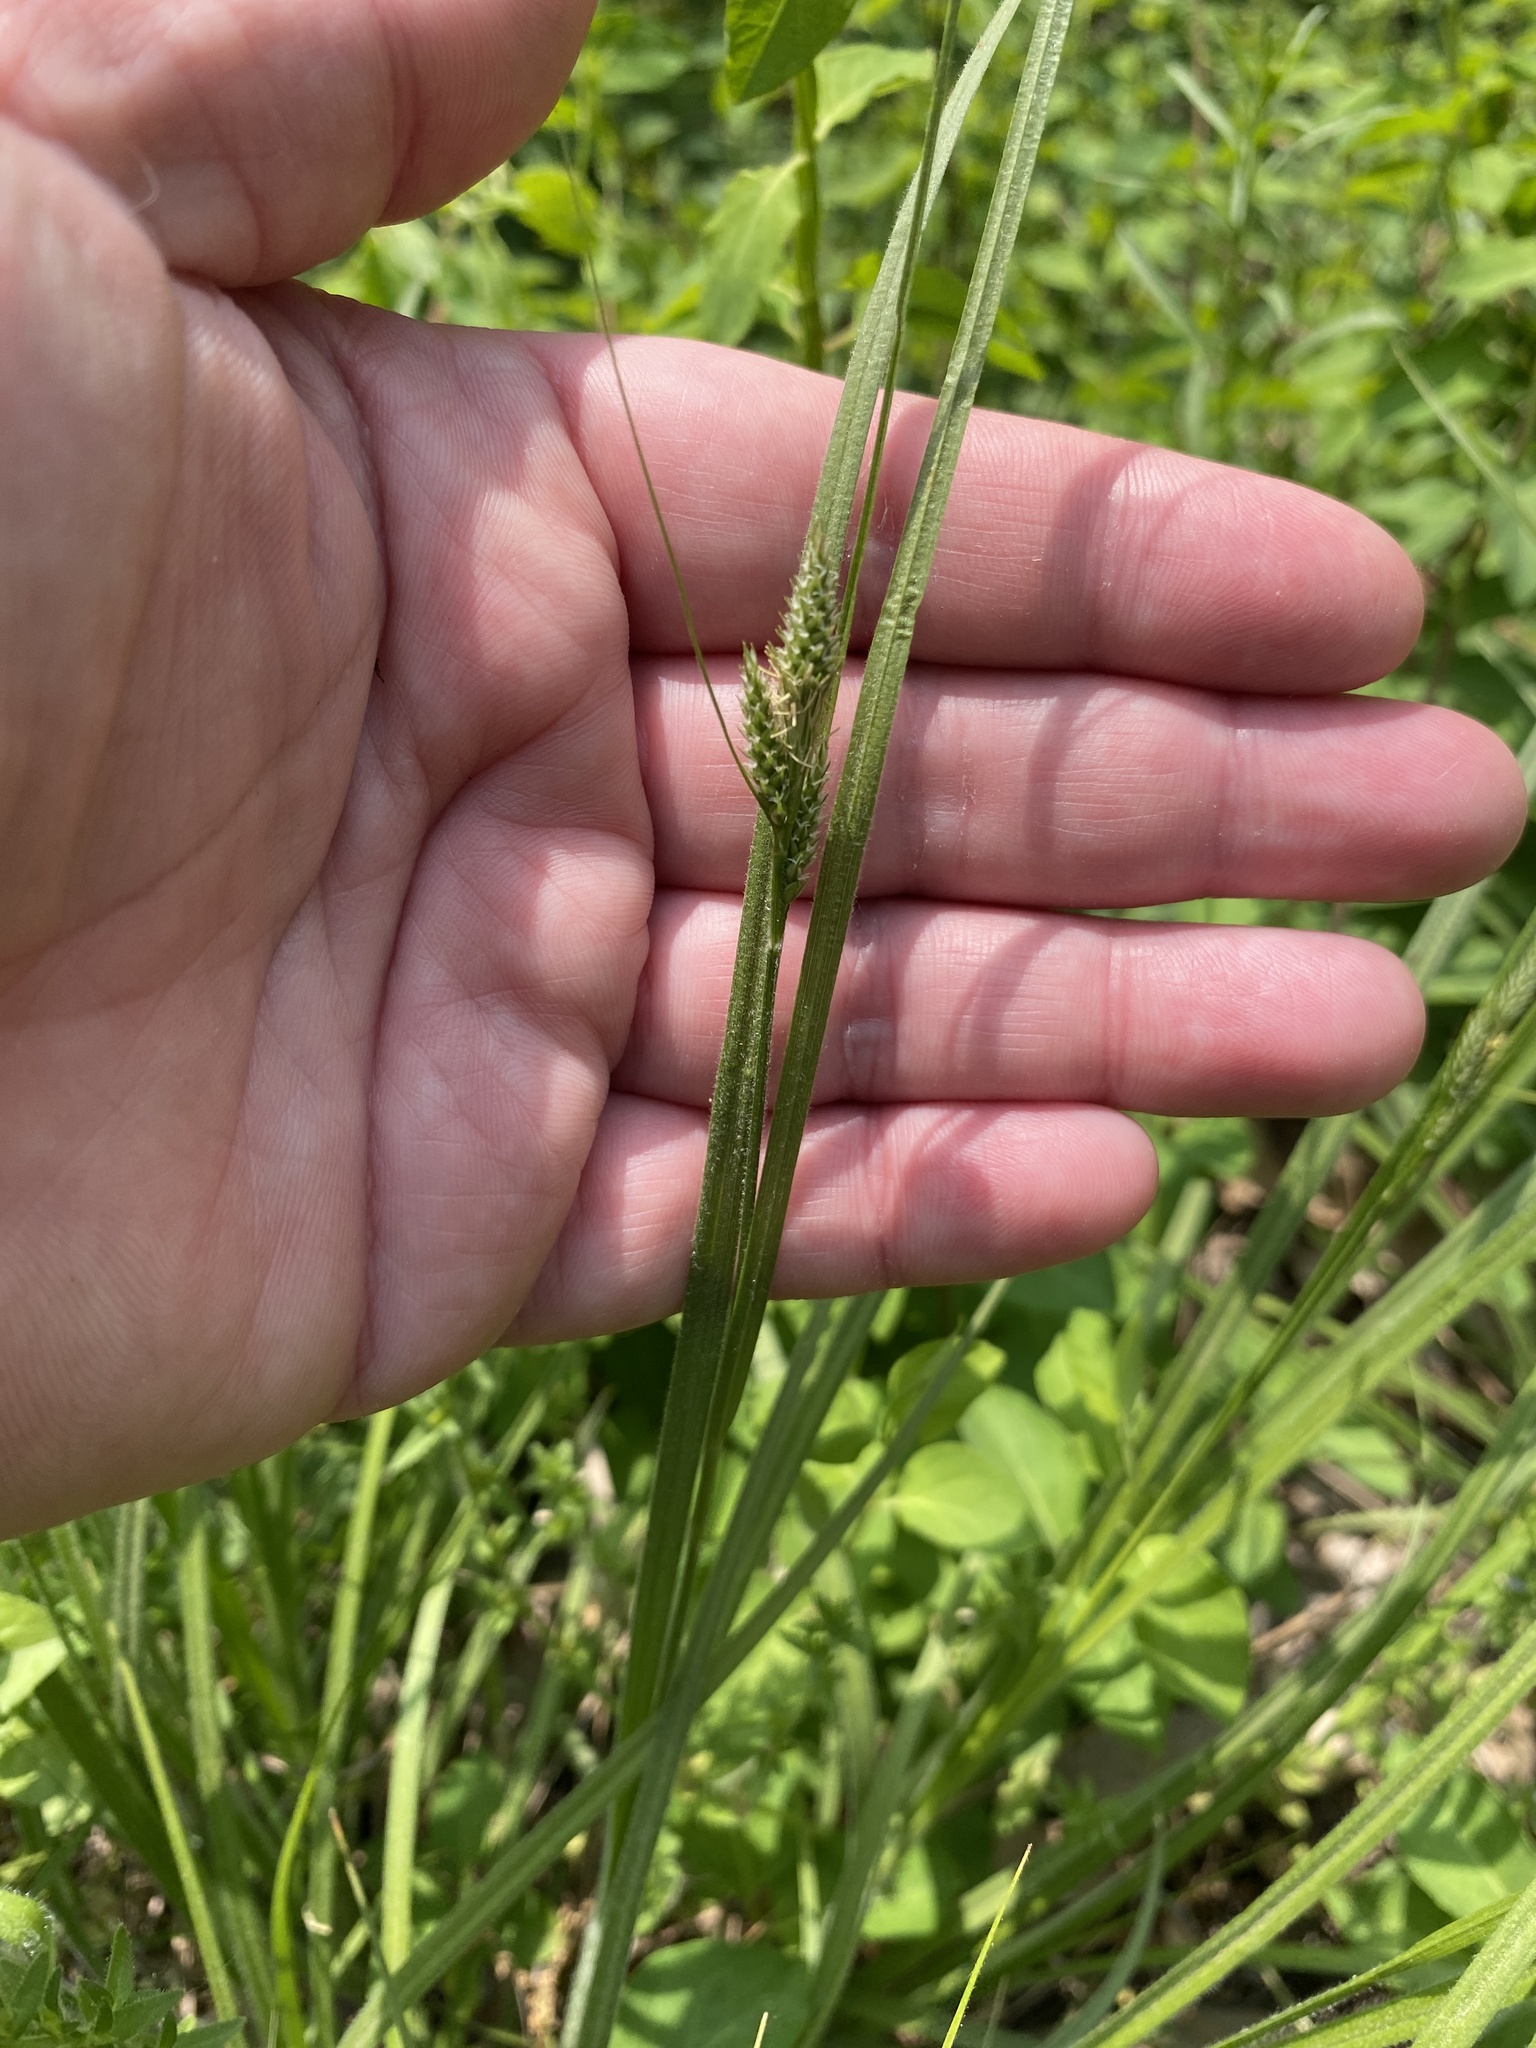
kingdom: Plantae
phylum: Tracheophyta
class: Liliopsida
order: Poales
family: Cyperaceae
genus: Carex
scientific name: Carex hirsutella
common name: Fuzzy wuzzy sedge
